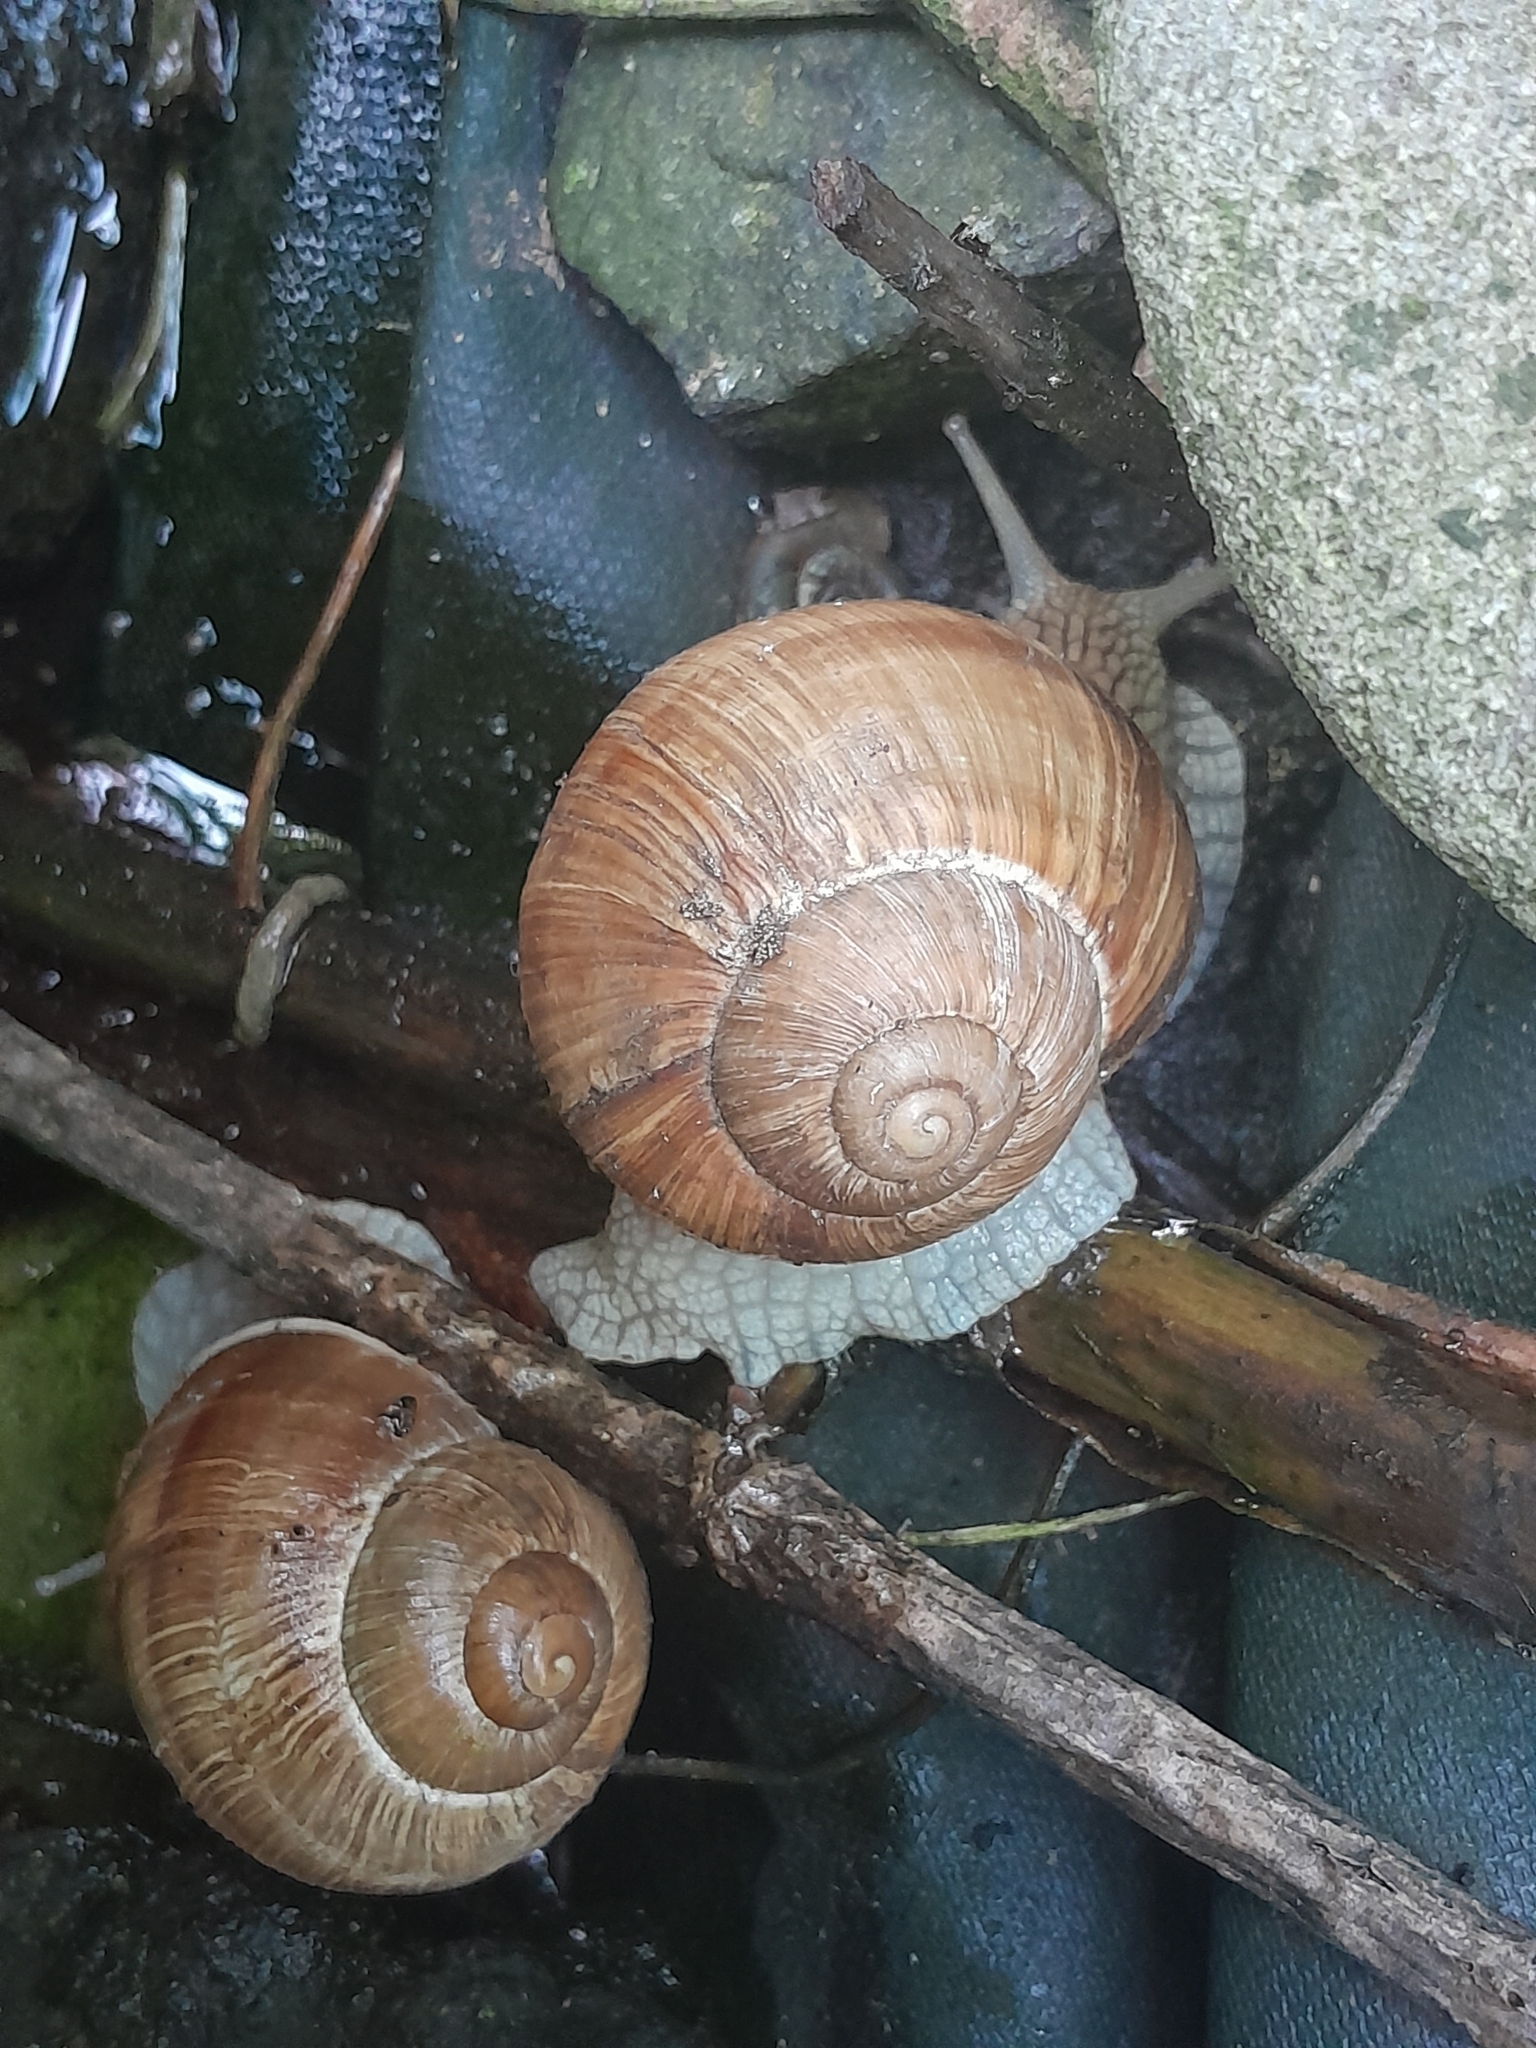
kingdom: Animalia
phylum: Mollusca
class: Gastropoda
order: Stylommatophora
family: Helicidae
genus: Helix
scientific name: Helix pomatia
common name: Roman snail
